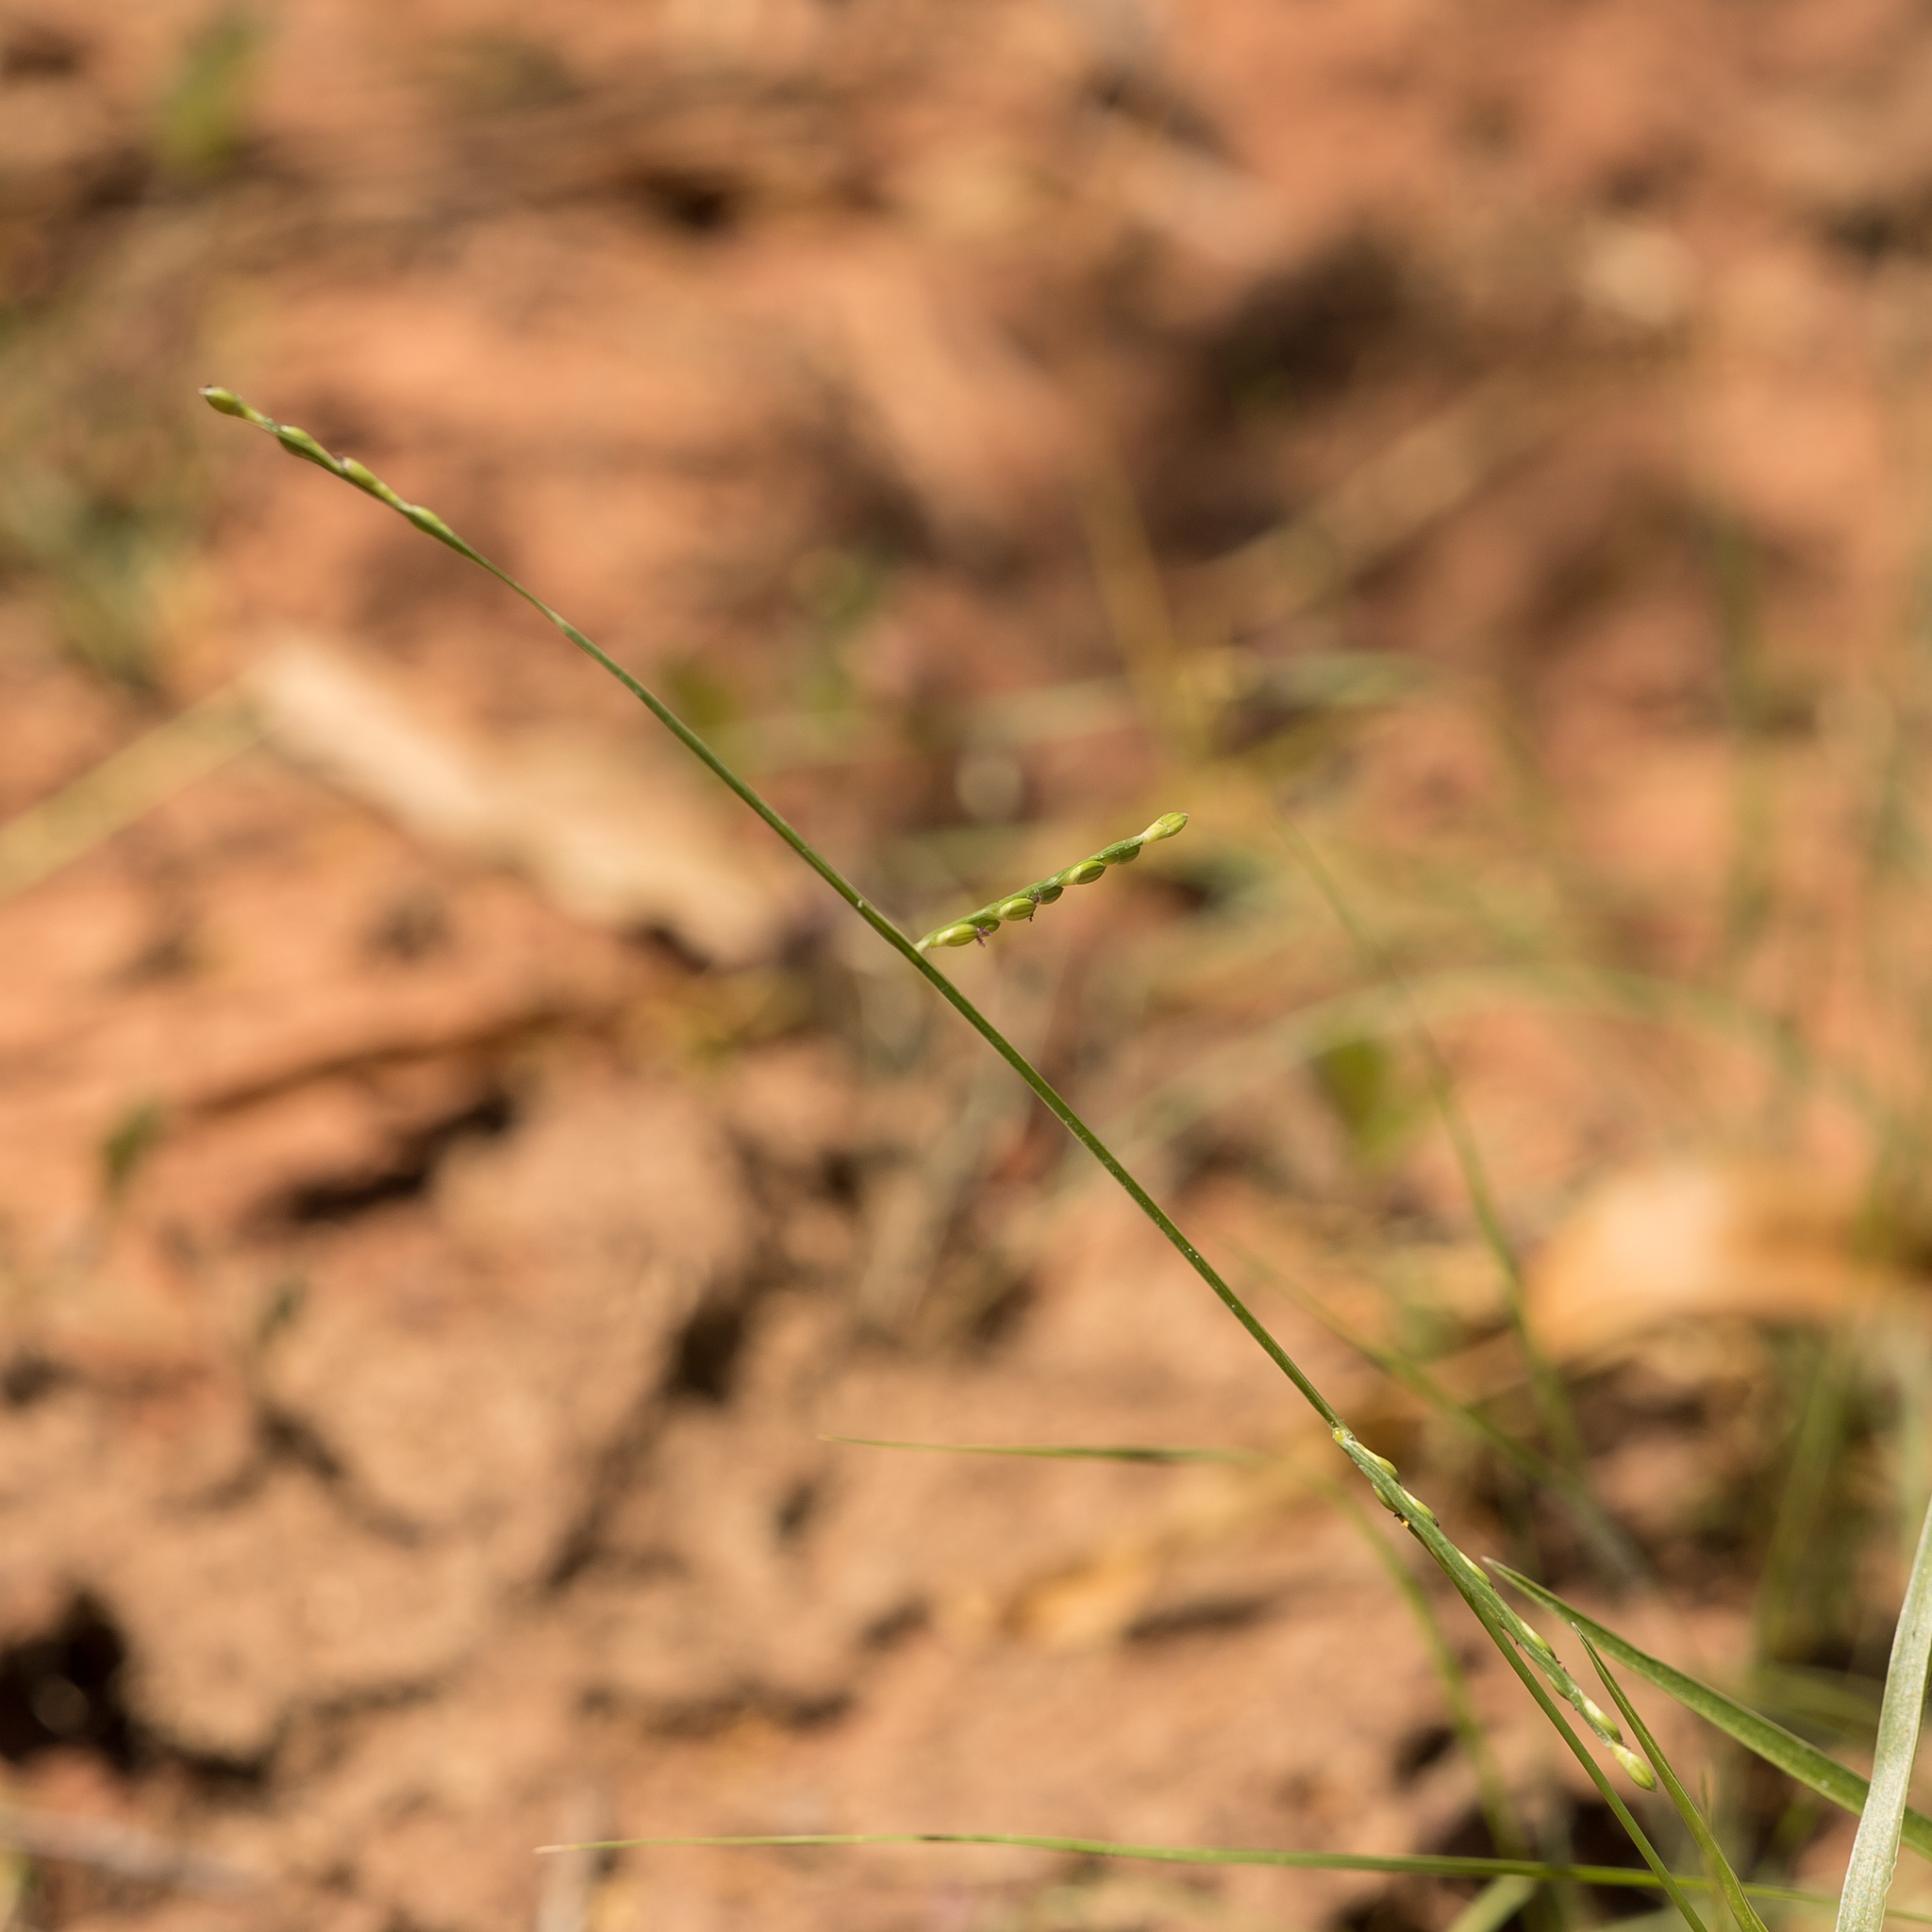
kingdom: Plantae
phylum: Tracheophyta
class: Liliopsida
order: Poales
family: Poaceae
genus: Urochloa
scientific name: Urochloa distachyos
